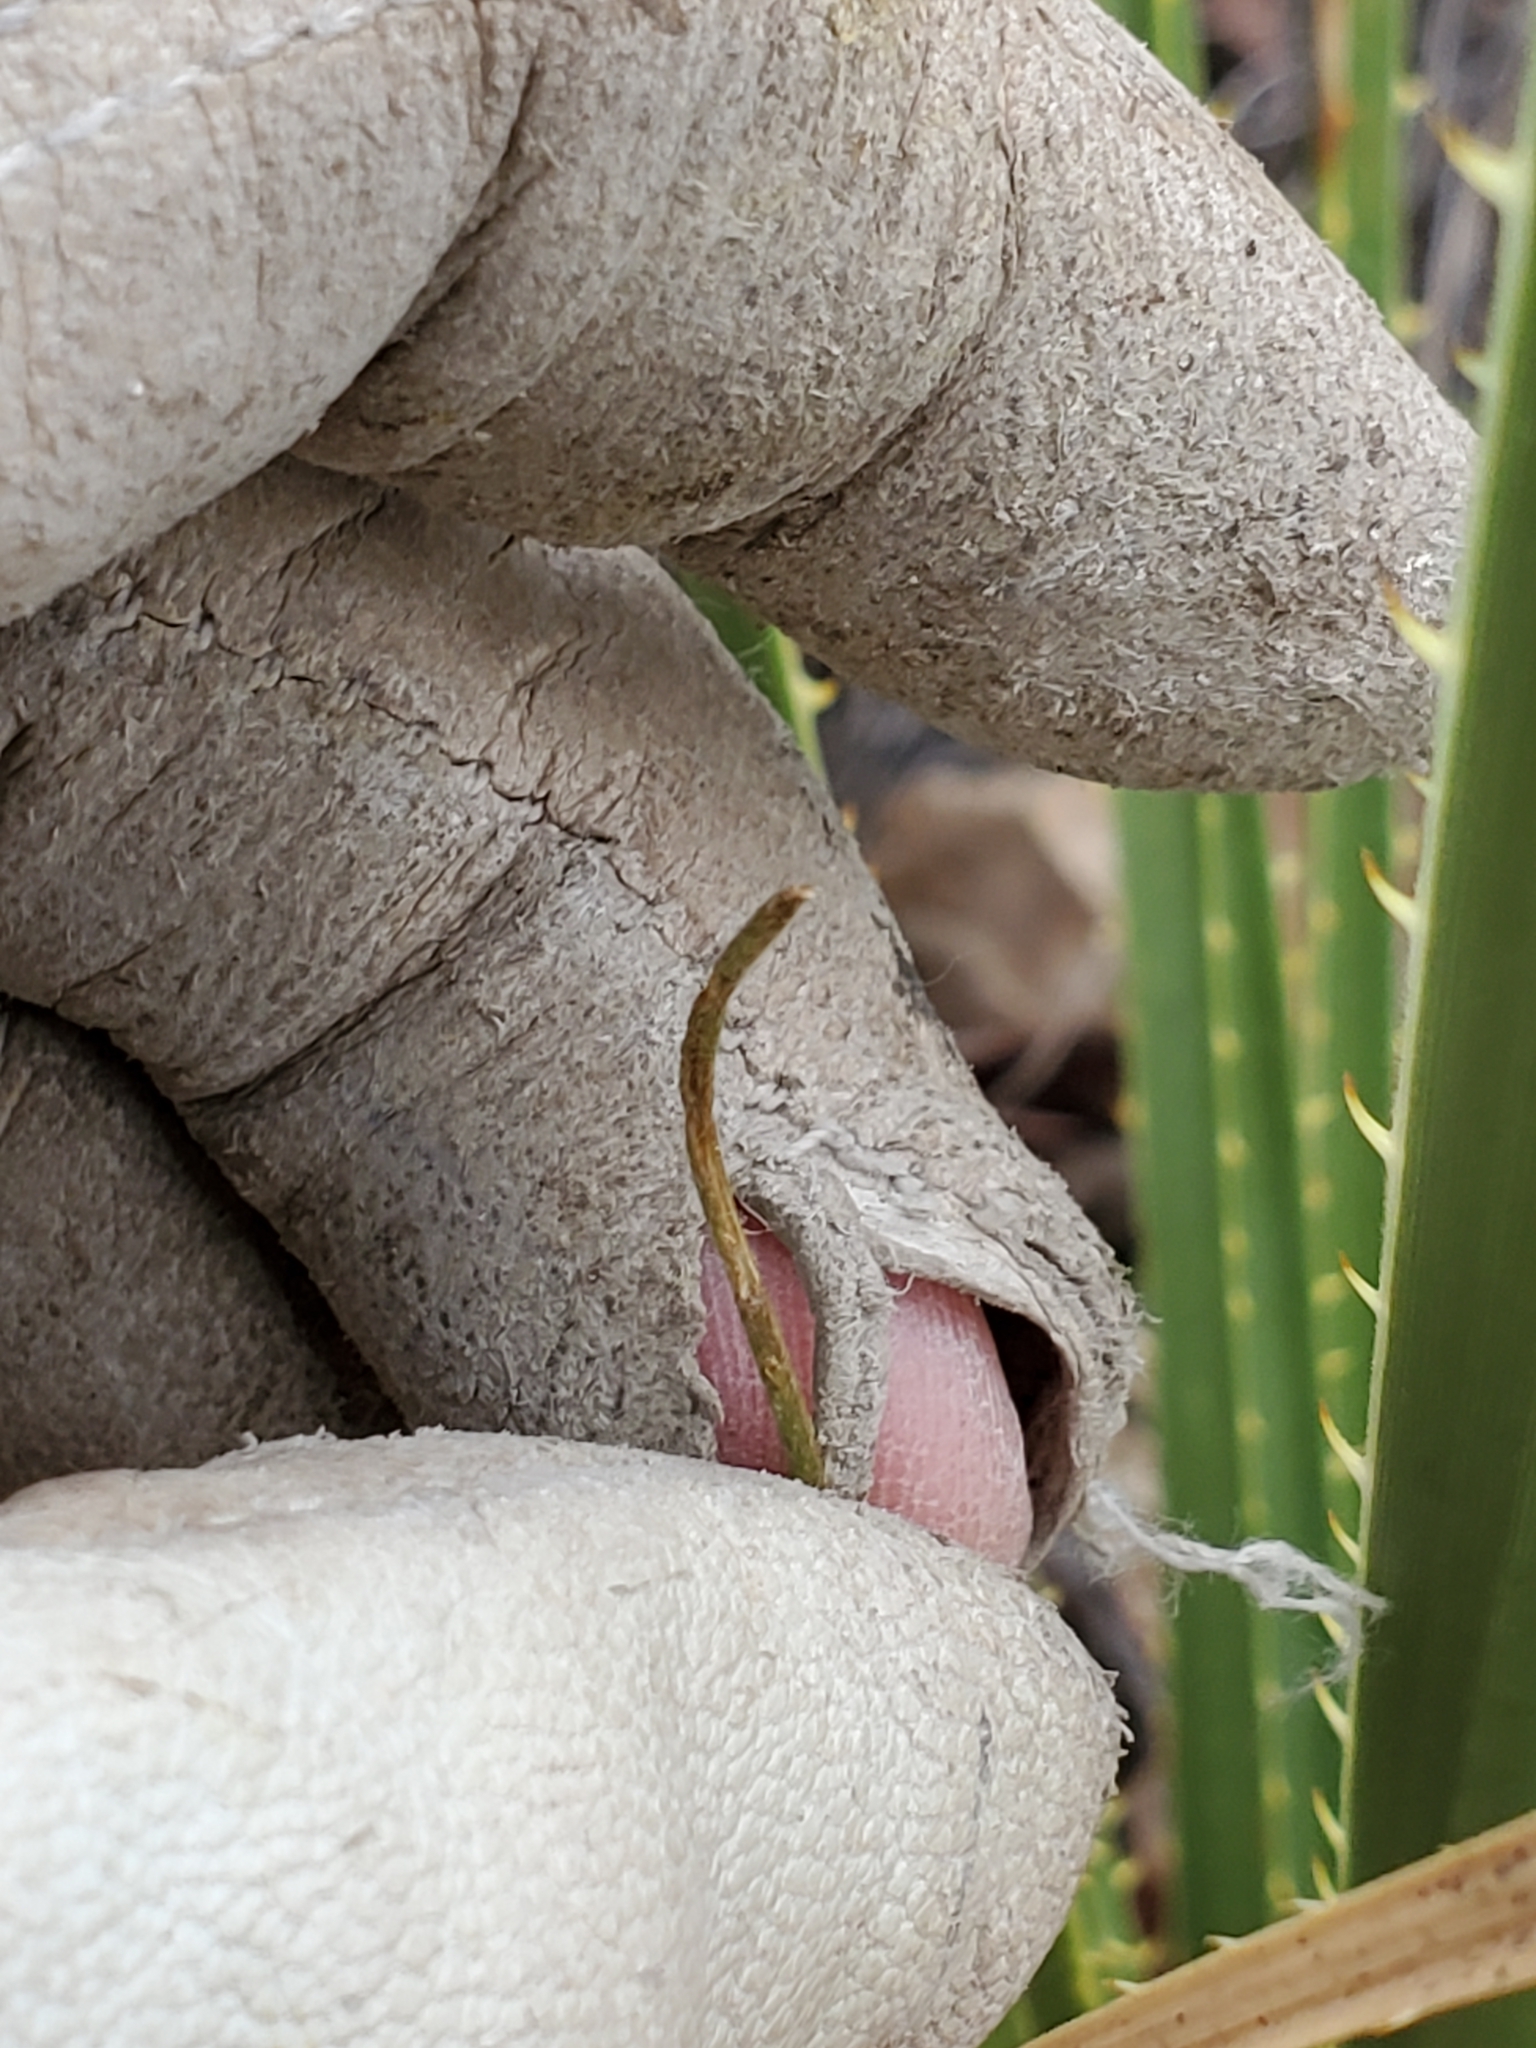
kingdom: Plantae
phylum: Tracheophyta
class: Magnoliopsida
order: Ranunculales
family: Ranunculaceae
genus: Anemone
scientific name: Anemone edwardsiana
